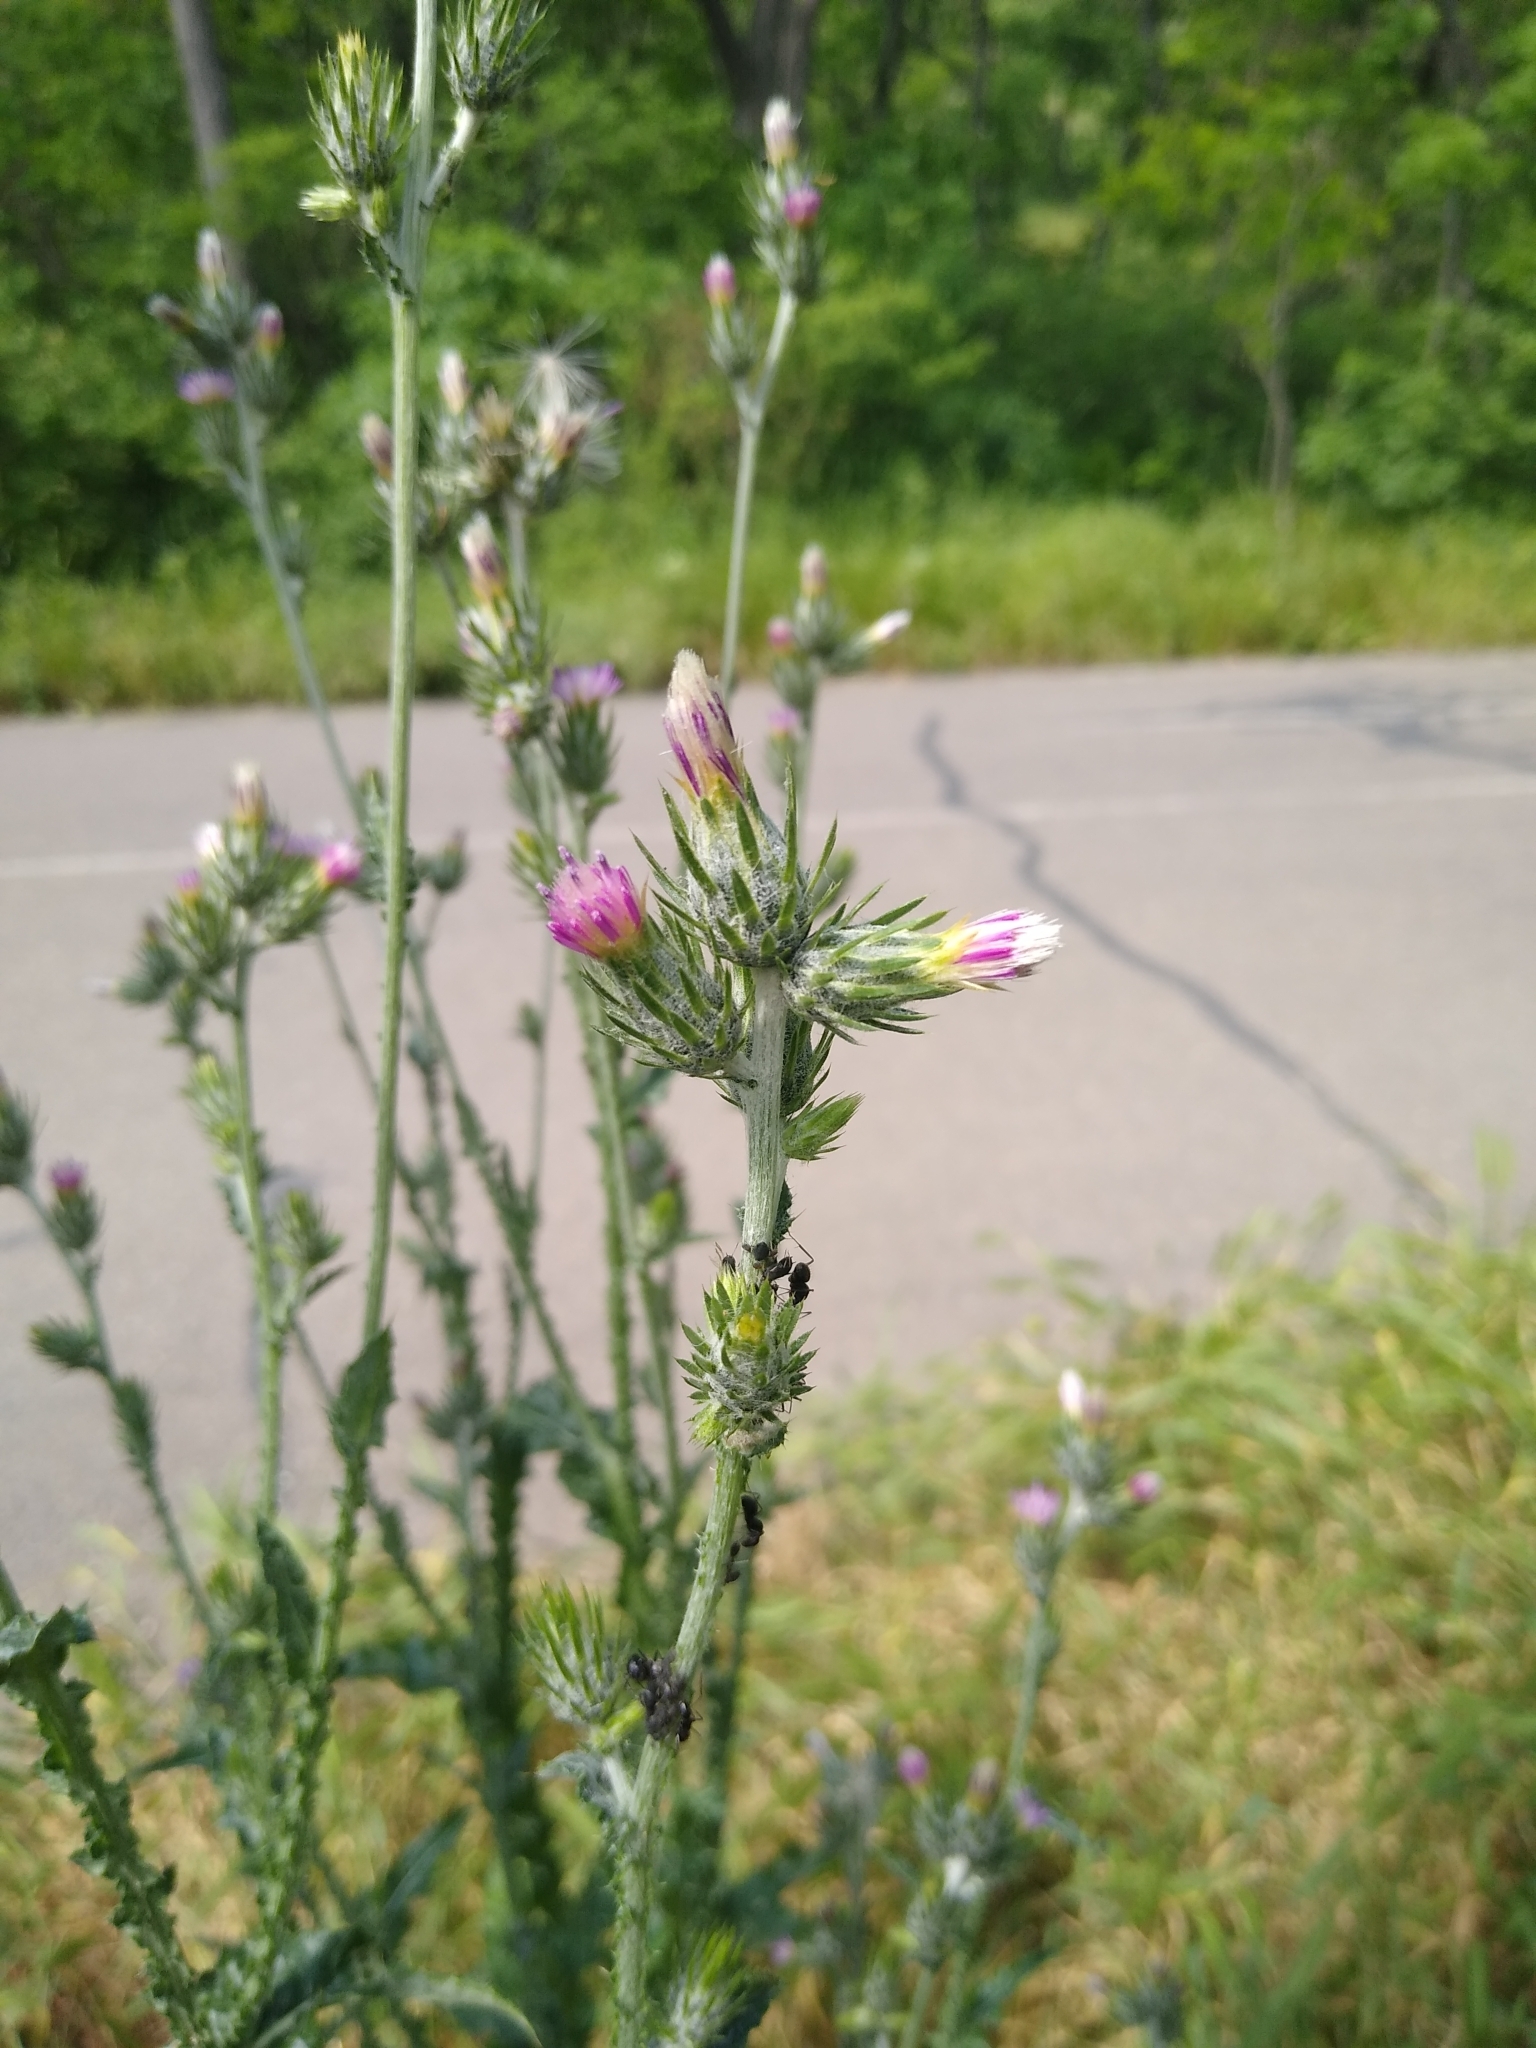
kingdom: Plantae
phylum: Tracheophyta
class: Magnoliopsida
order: Asterales
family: Asteraceae
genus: Carduus
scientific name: Carduus arabicus
